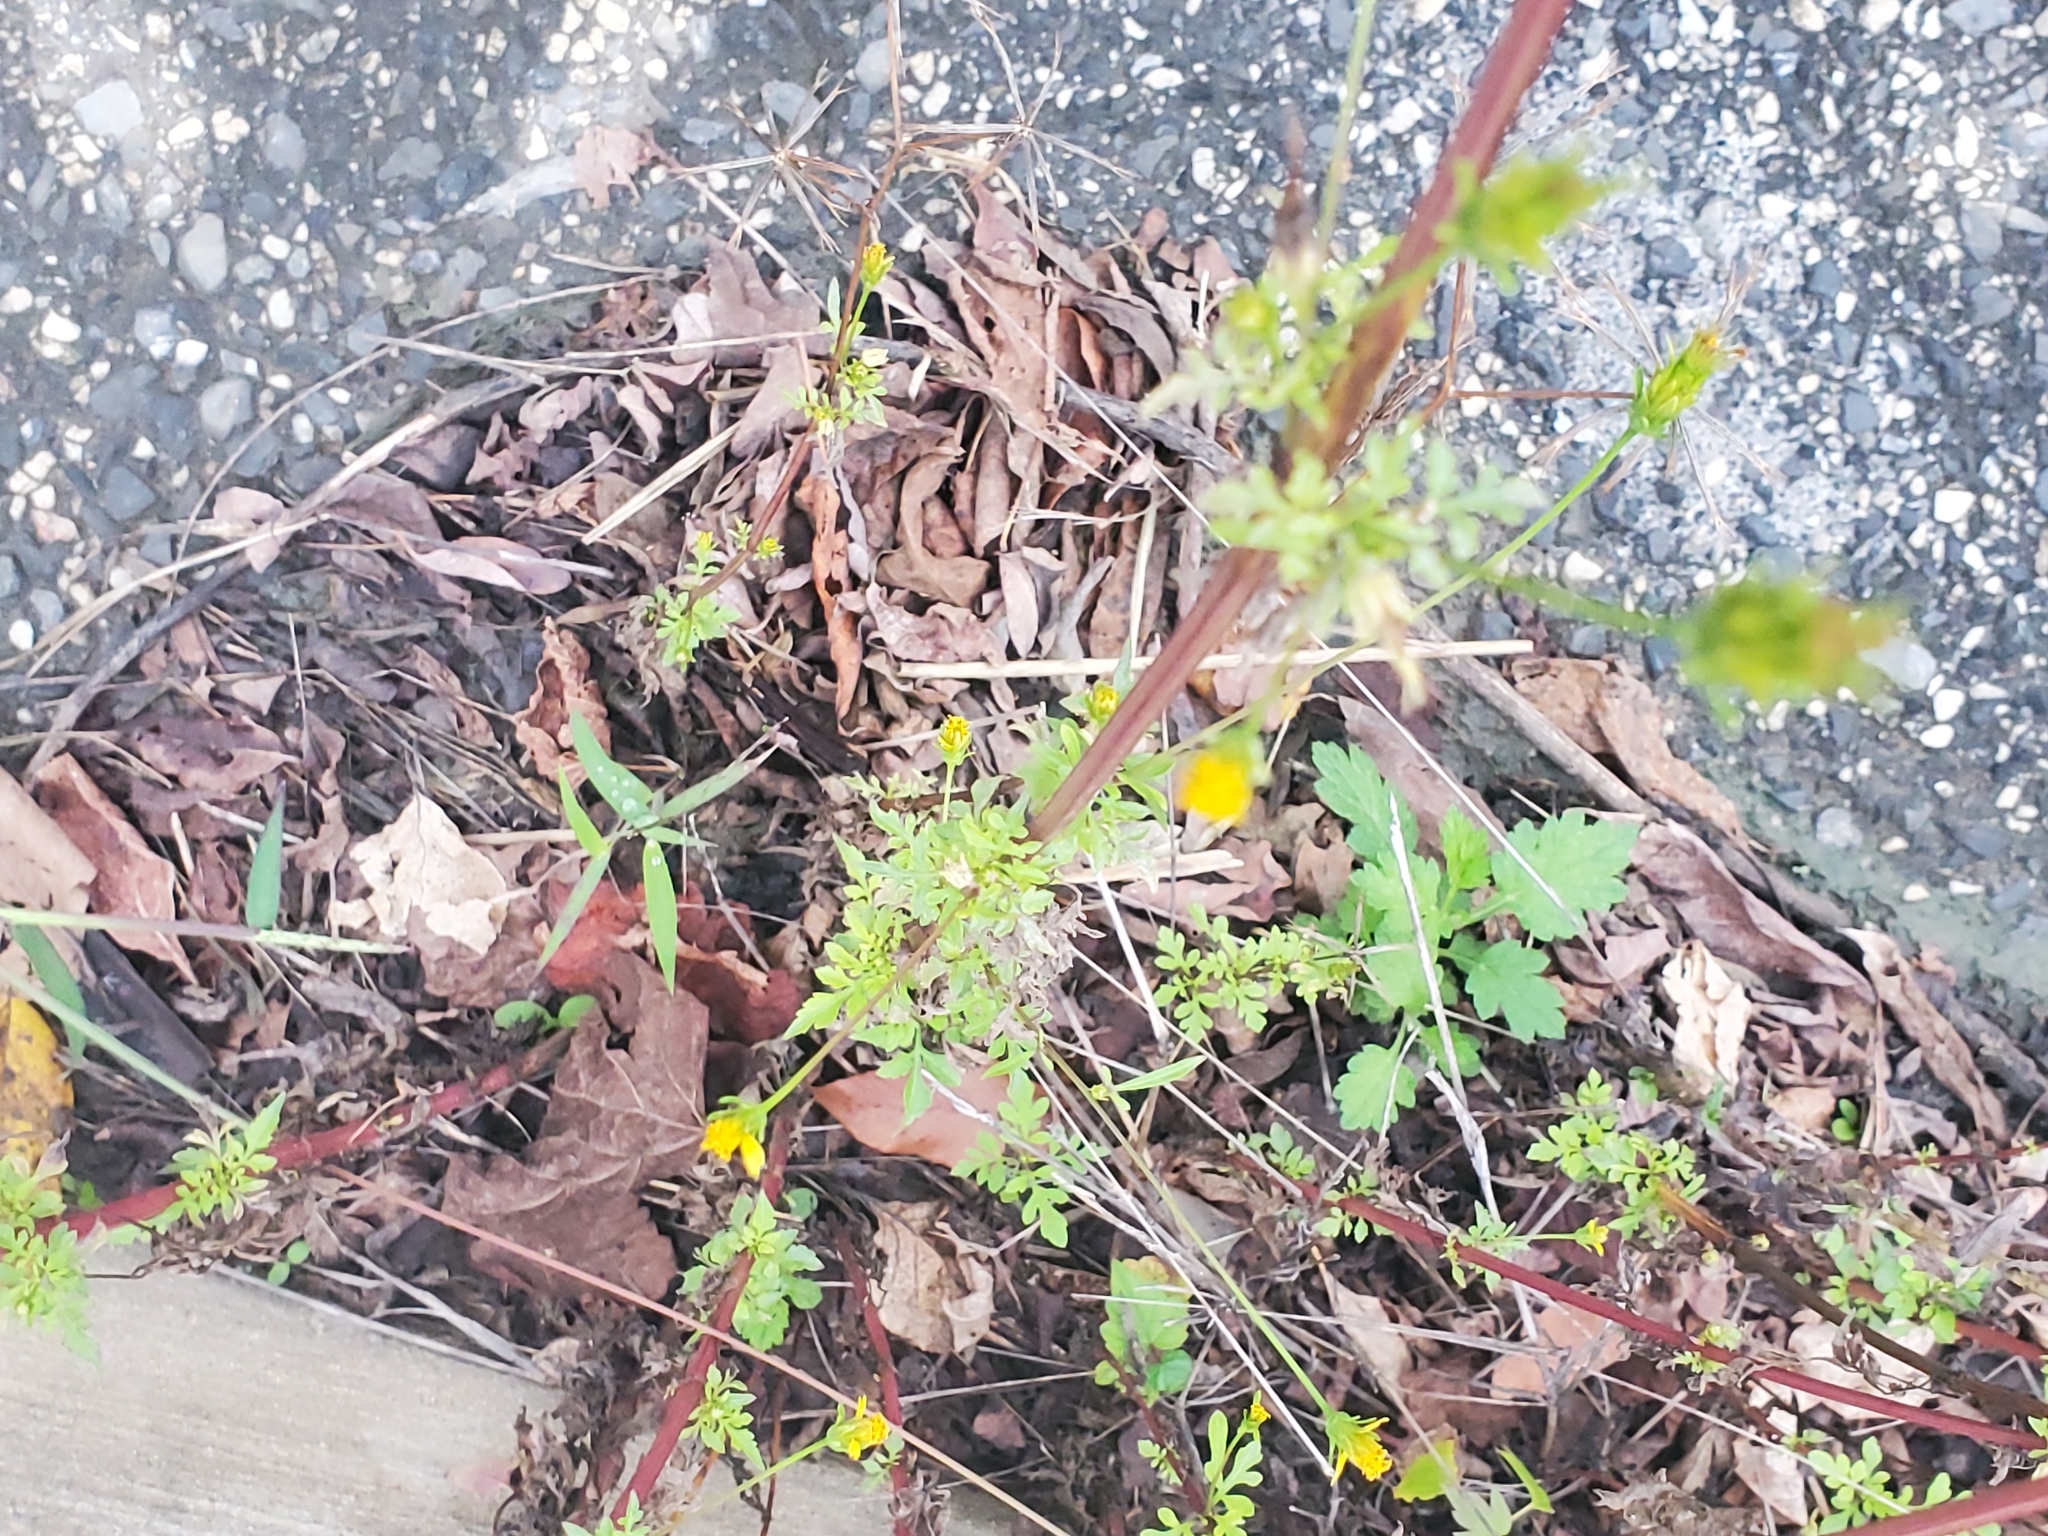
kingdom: Plantae
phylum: Tracheophyta
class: Magnoliopsida
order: Asterales
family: Asteraceae
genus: Bidens
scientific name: Bidens bipinnata
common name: Spanish-needles
